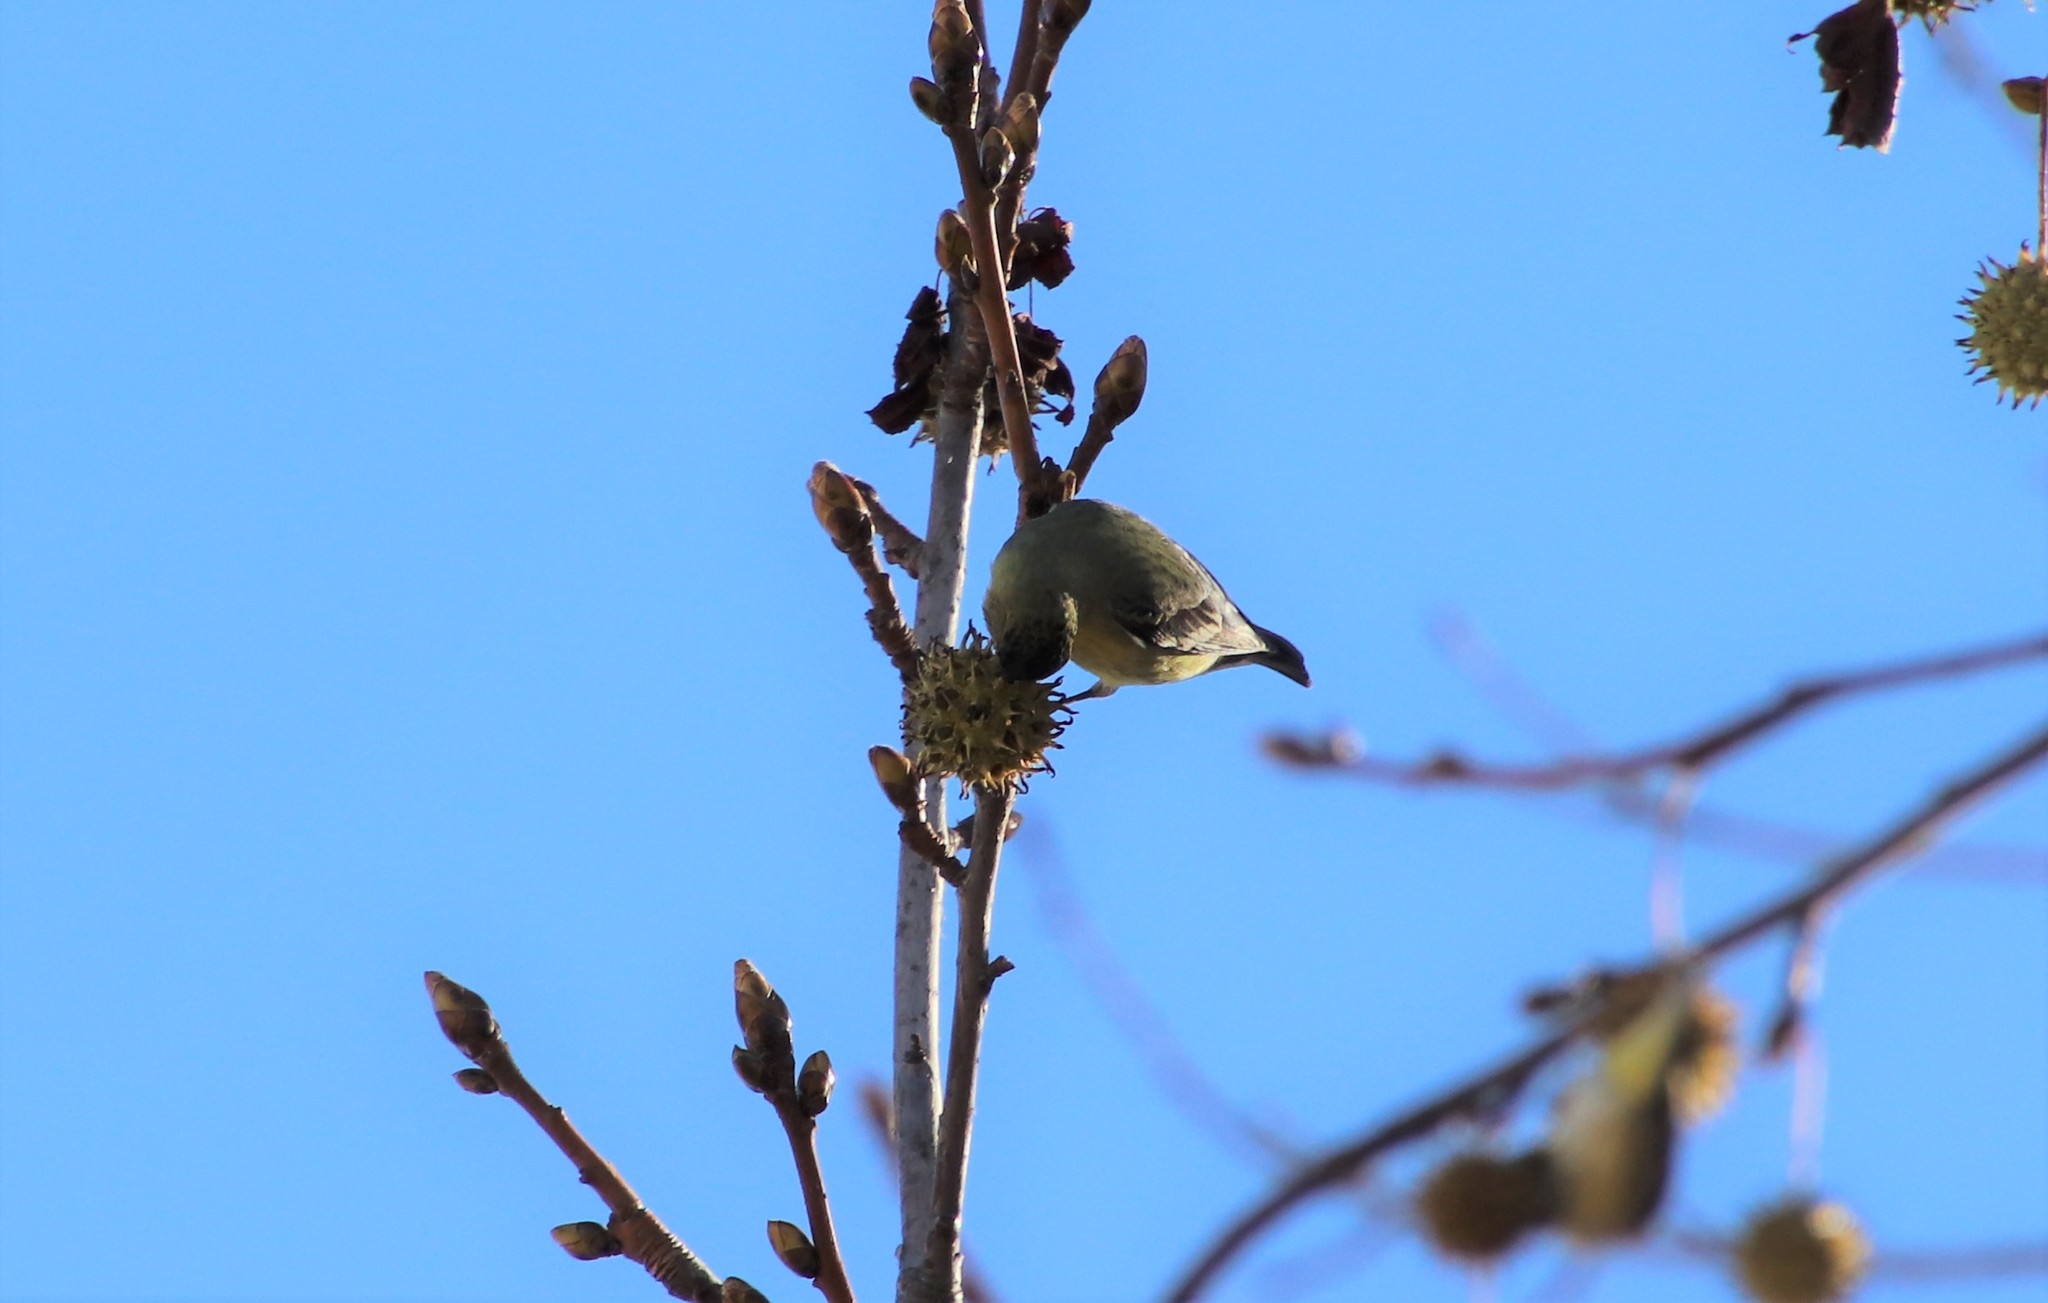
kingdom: Animalia
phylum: Chordata
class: Aves
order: Passeriformes
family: Fringillidae
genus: Spinus
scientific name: Spinus psaltria
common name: Lesser goldfinch
